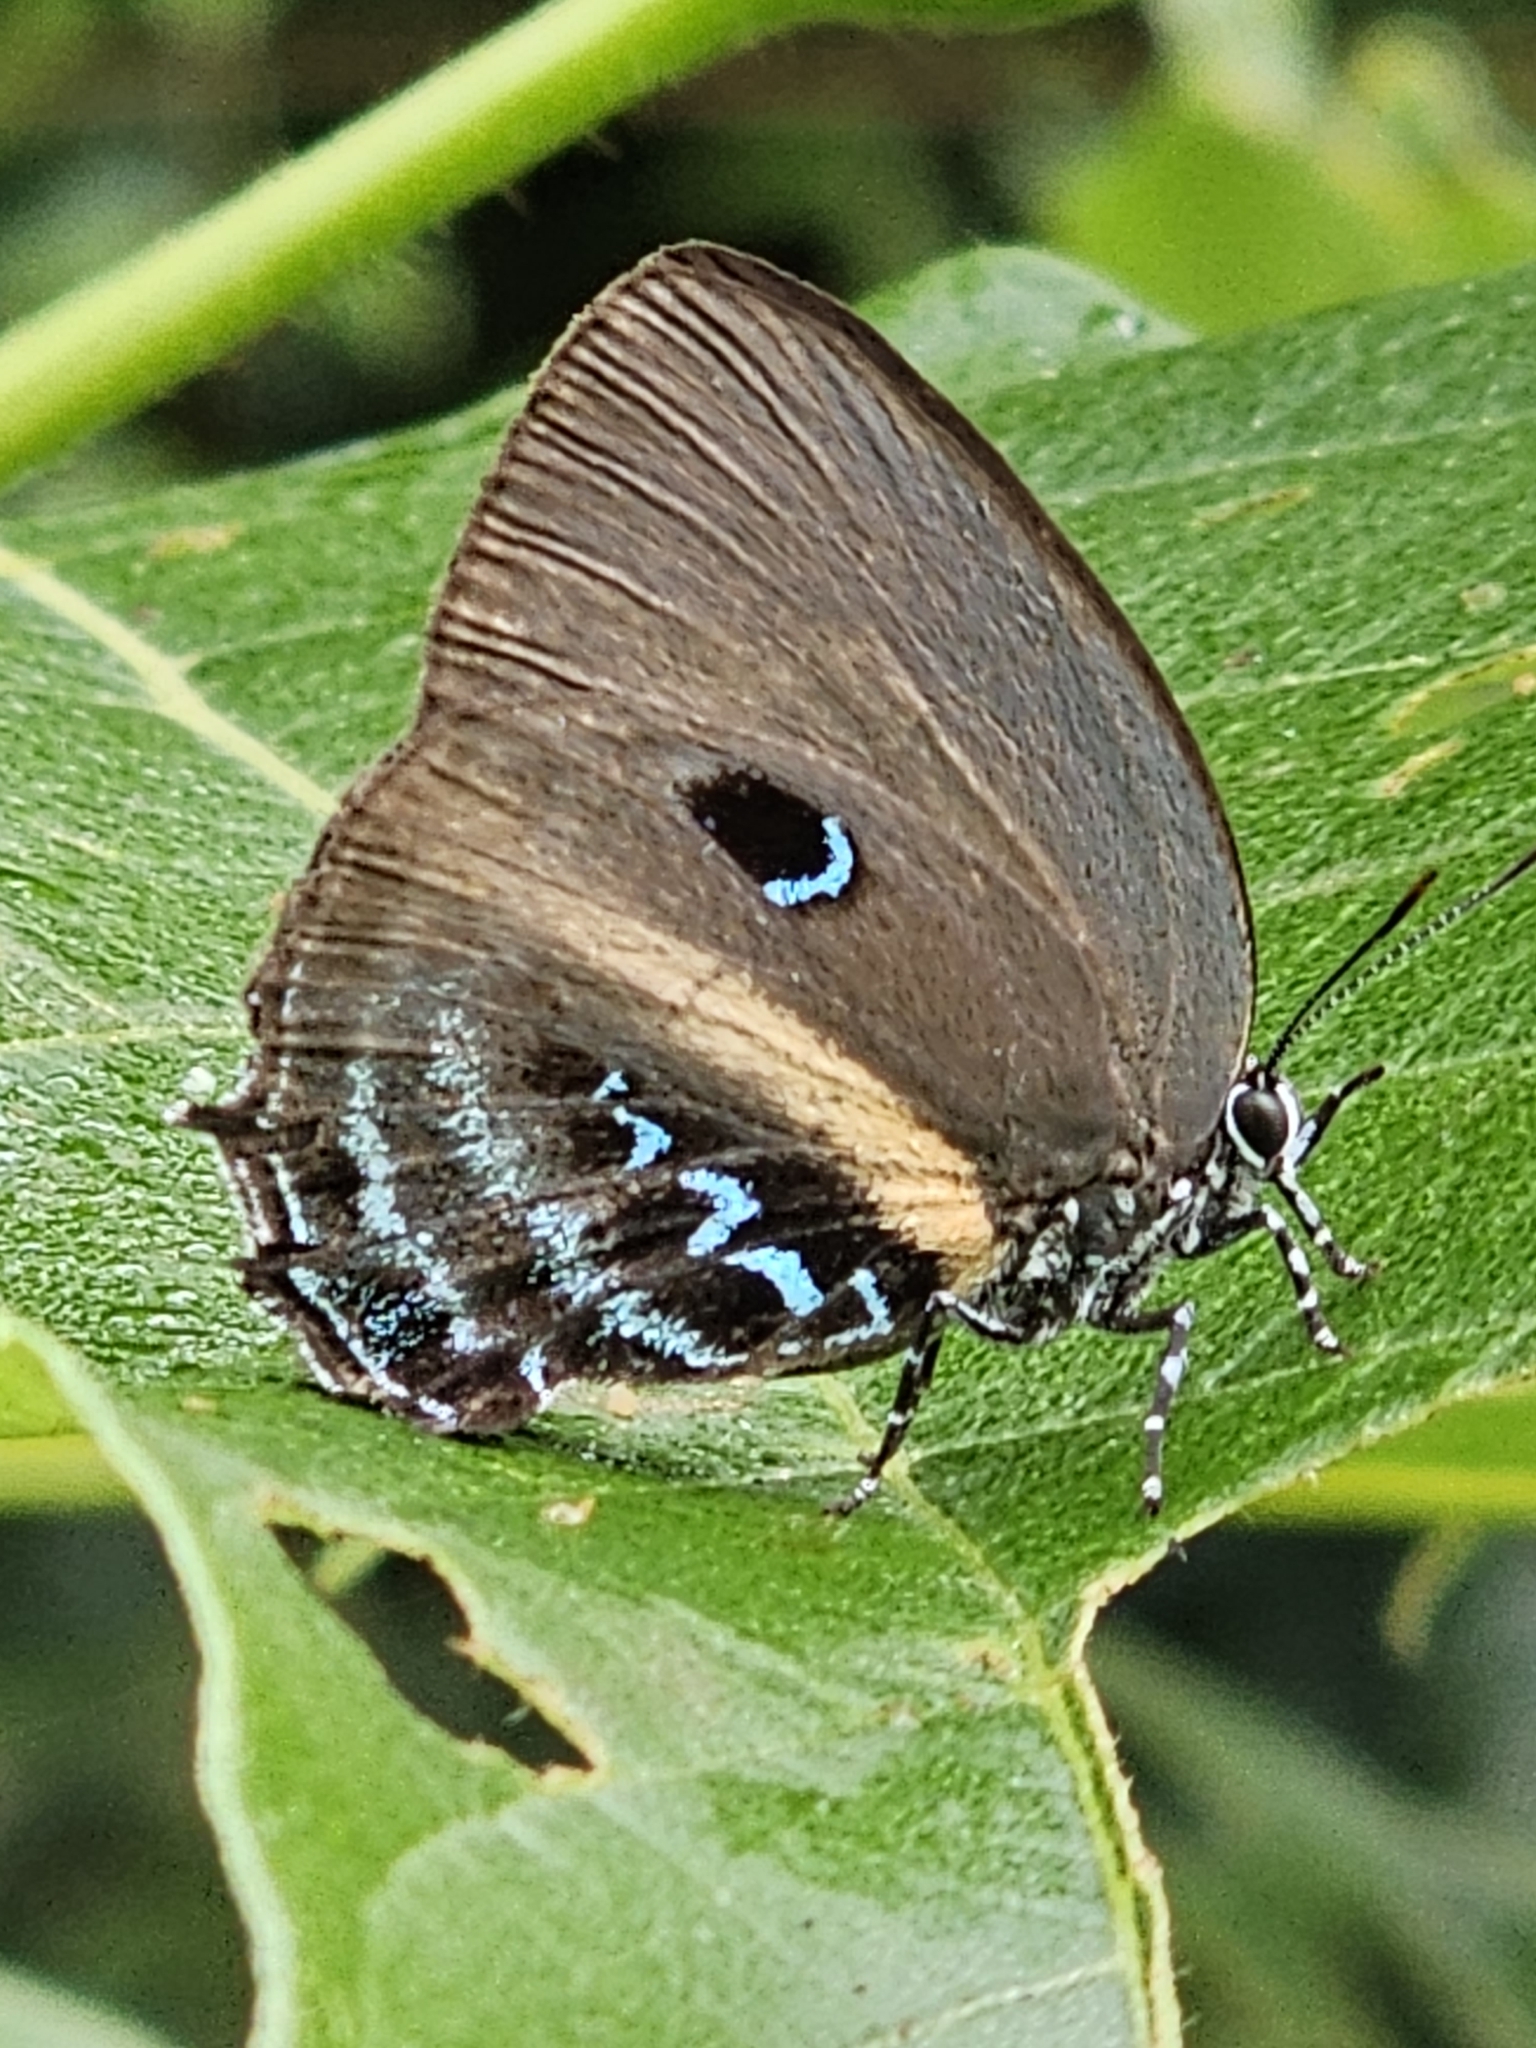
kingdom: Animalia
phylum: Arthropoda
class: Insecta
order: Lepidoptera
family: Lycaenidae
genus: Mithras
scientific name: Mithras nautes
